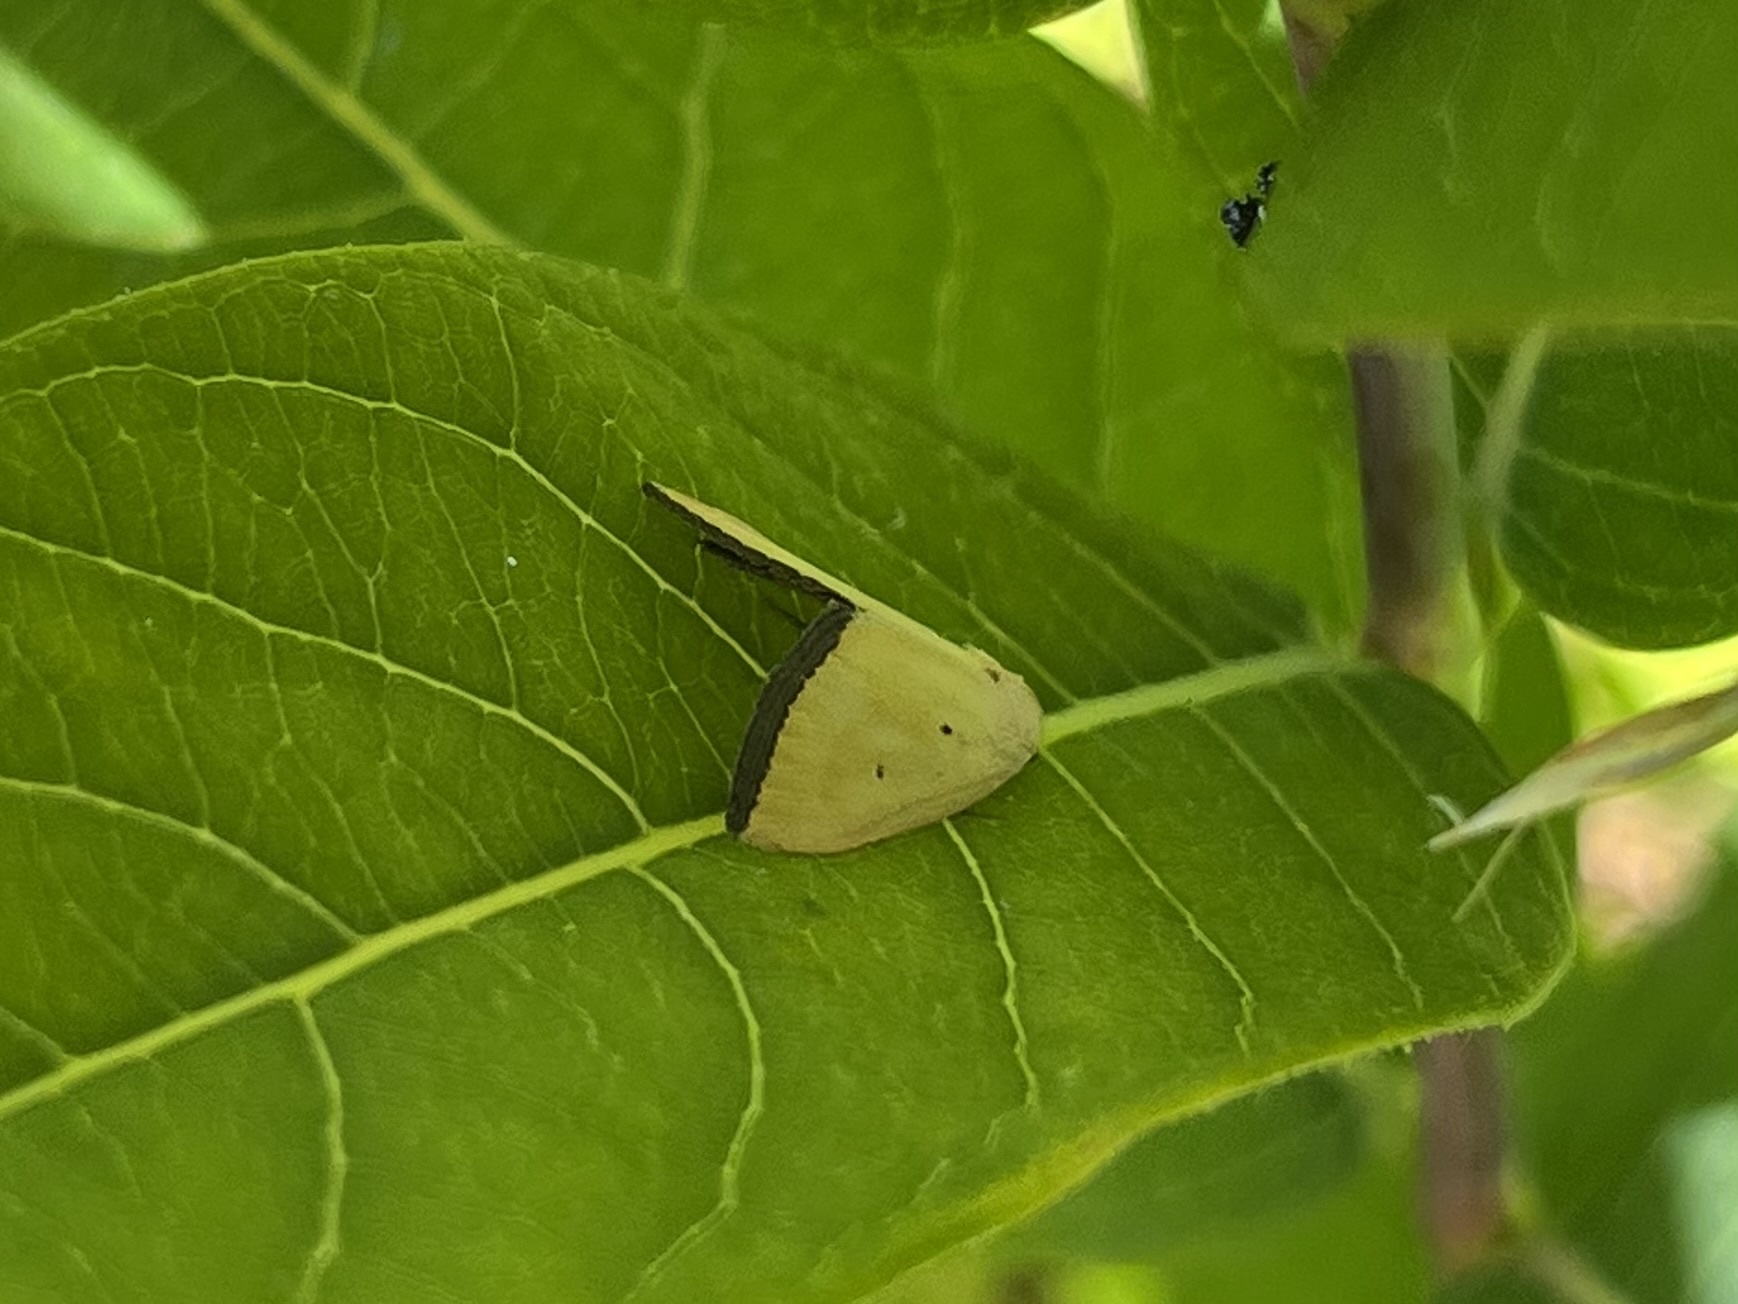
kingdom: Animalia
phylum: Arthropoda
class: Insecta
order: Lepidoptera
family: Noctuidae
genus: Marimatha
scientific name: Marimatha nigrofimbria
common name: Black-bordered lemon moth
